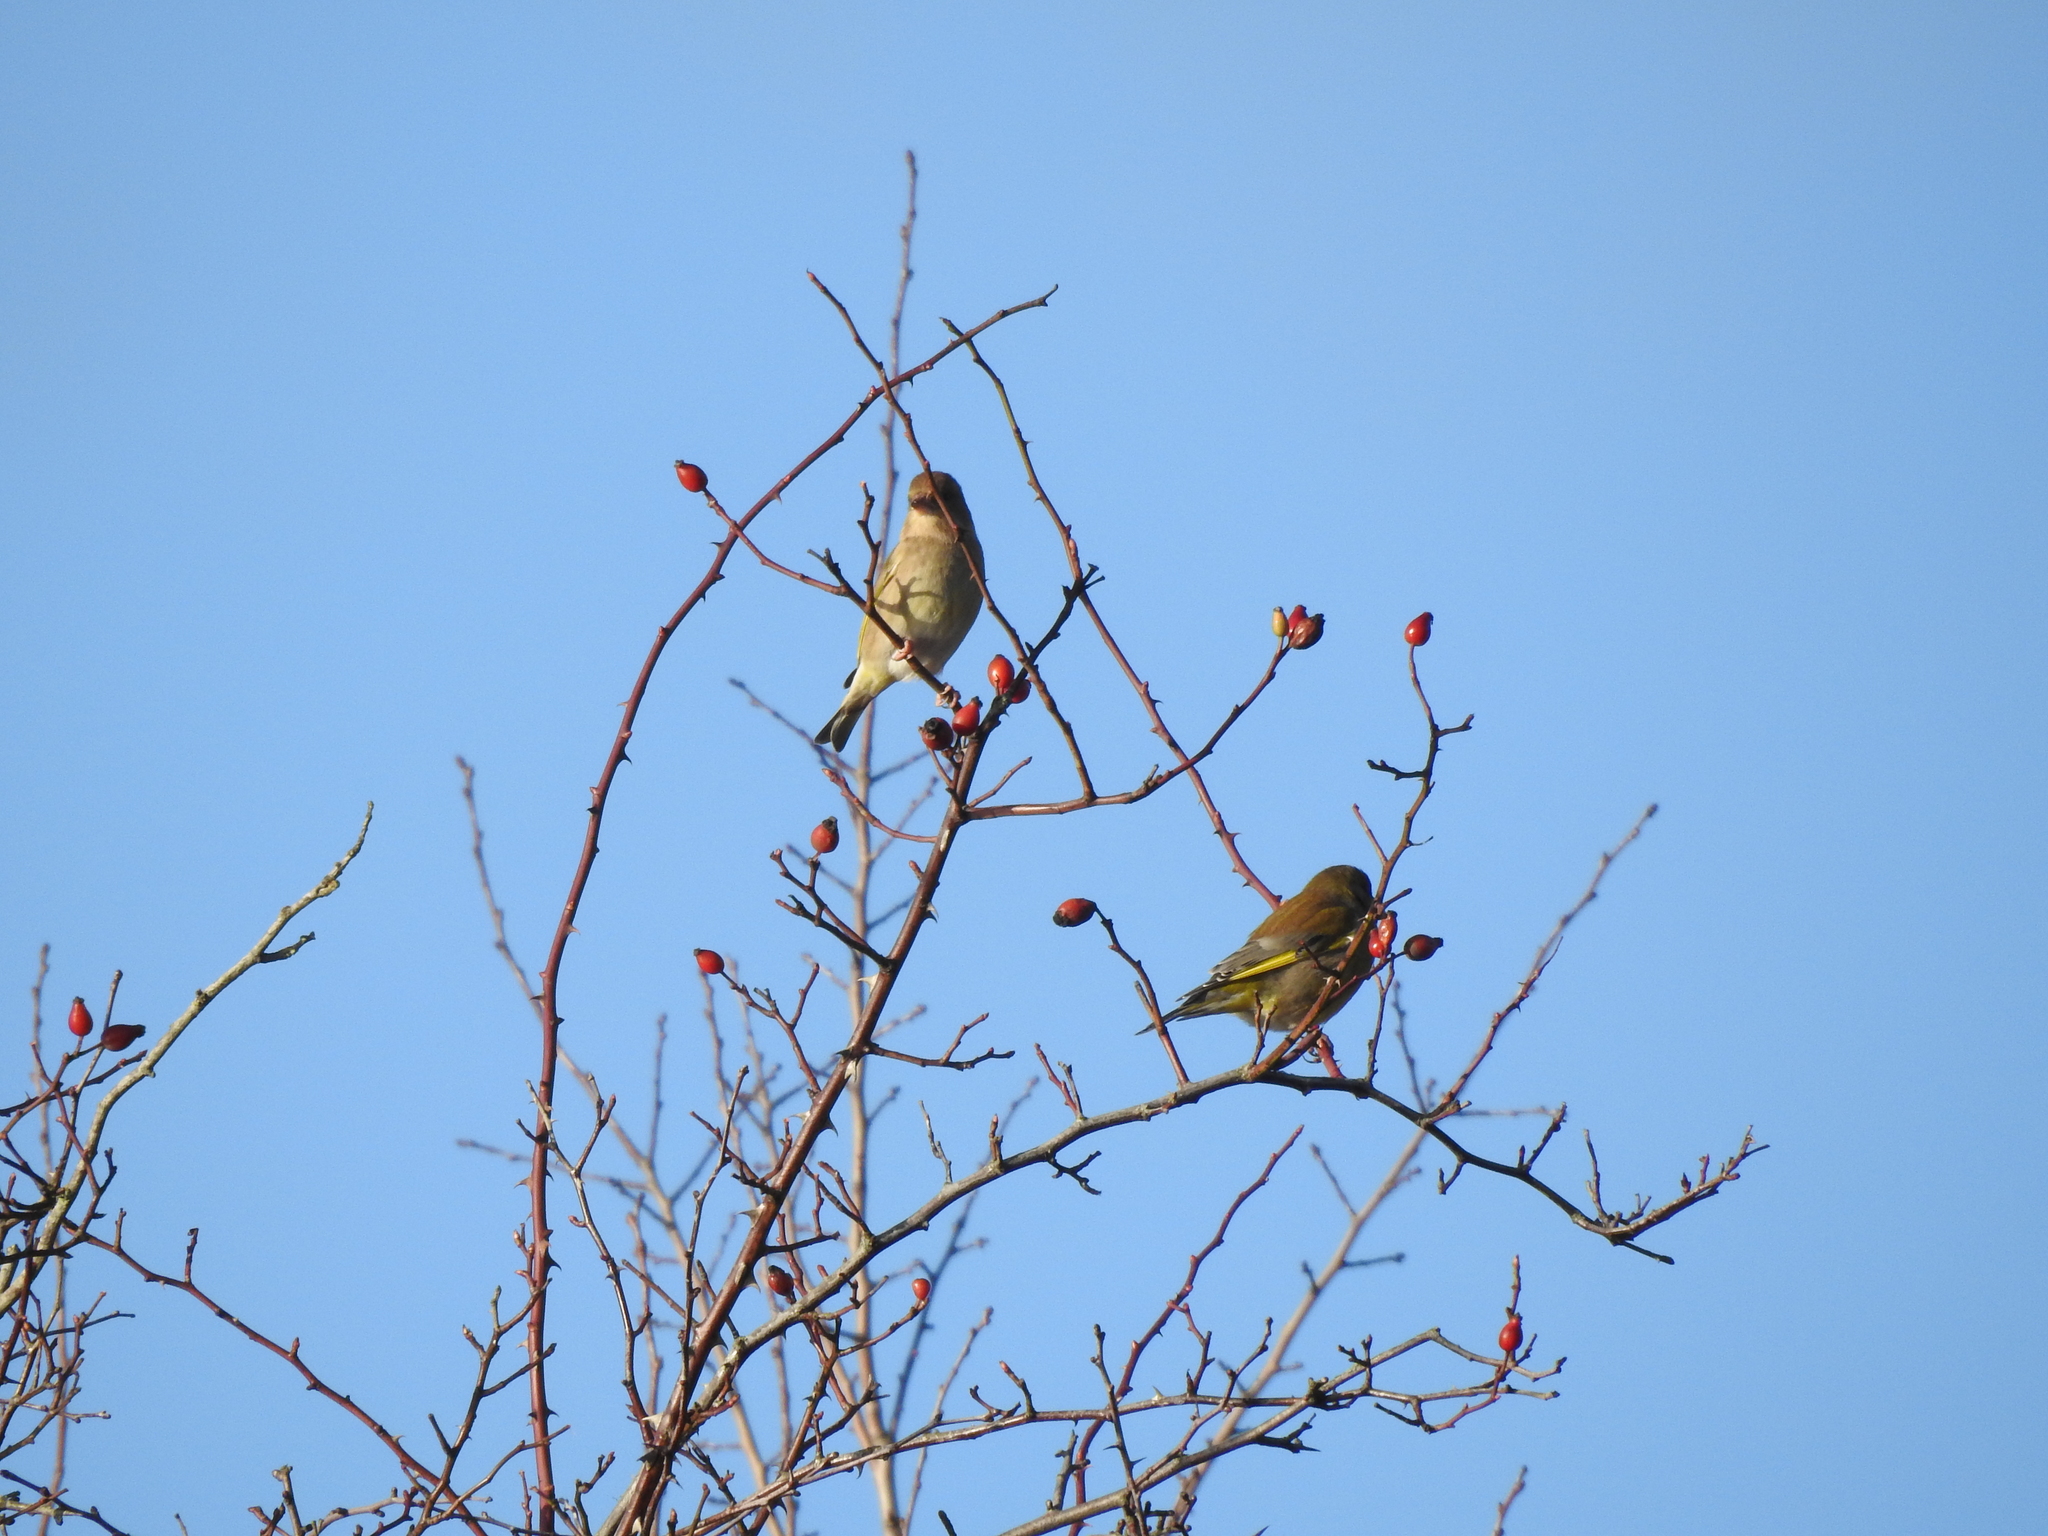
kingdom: Plantae
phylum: Tracheophyta
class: Liliopsida
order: Poales
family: Poaceae
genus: Chloris
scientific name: Chloris chloris
